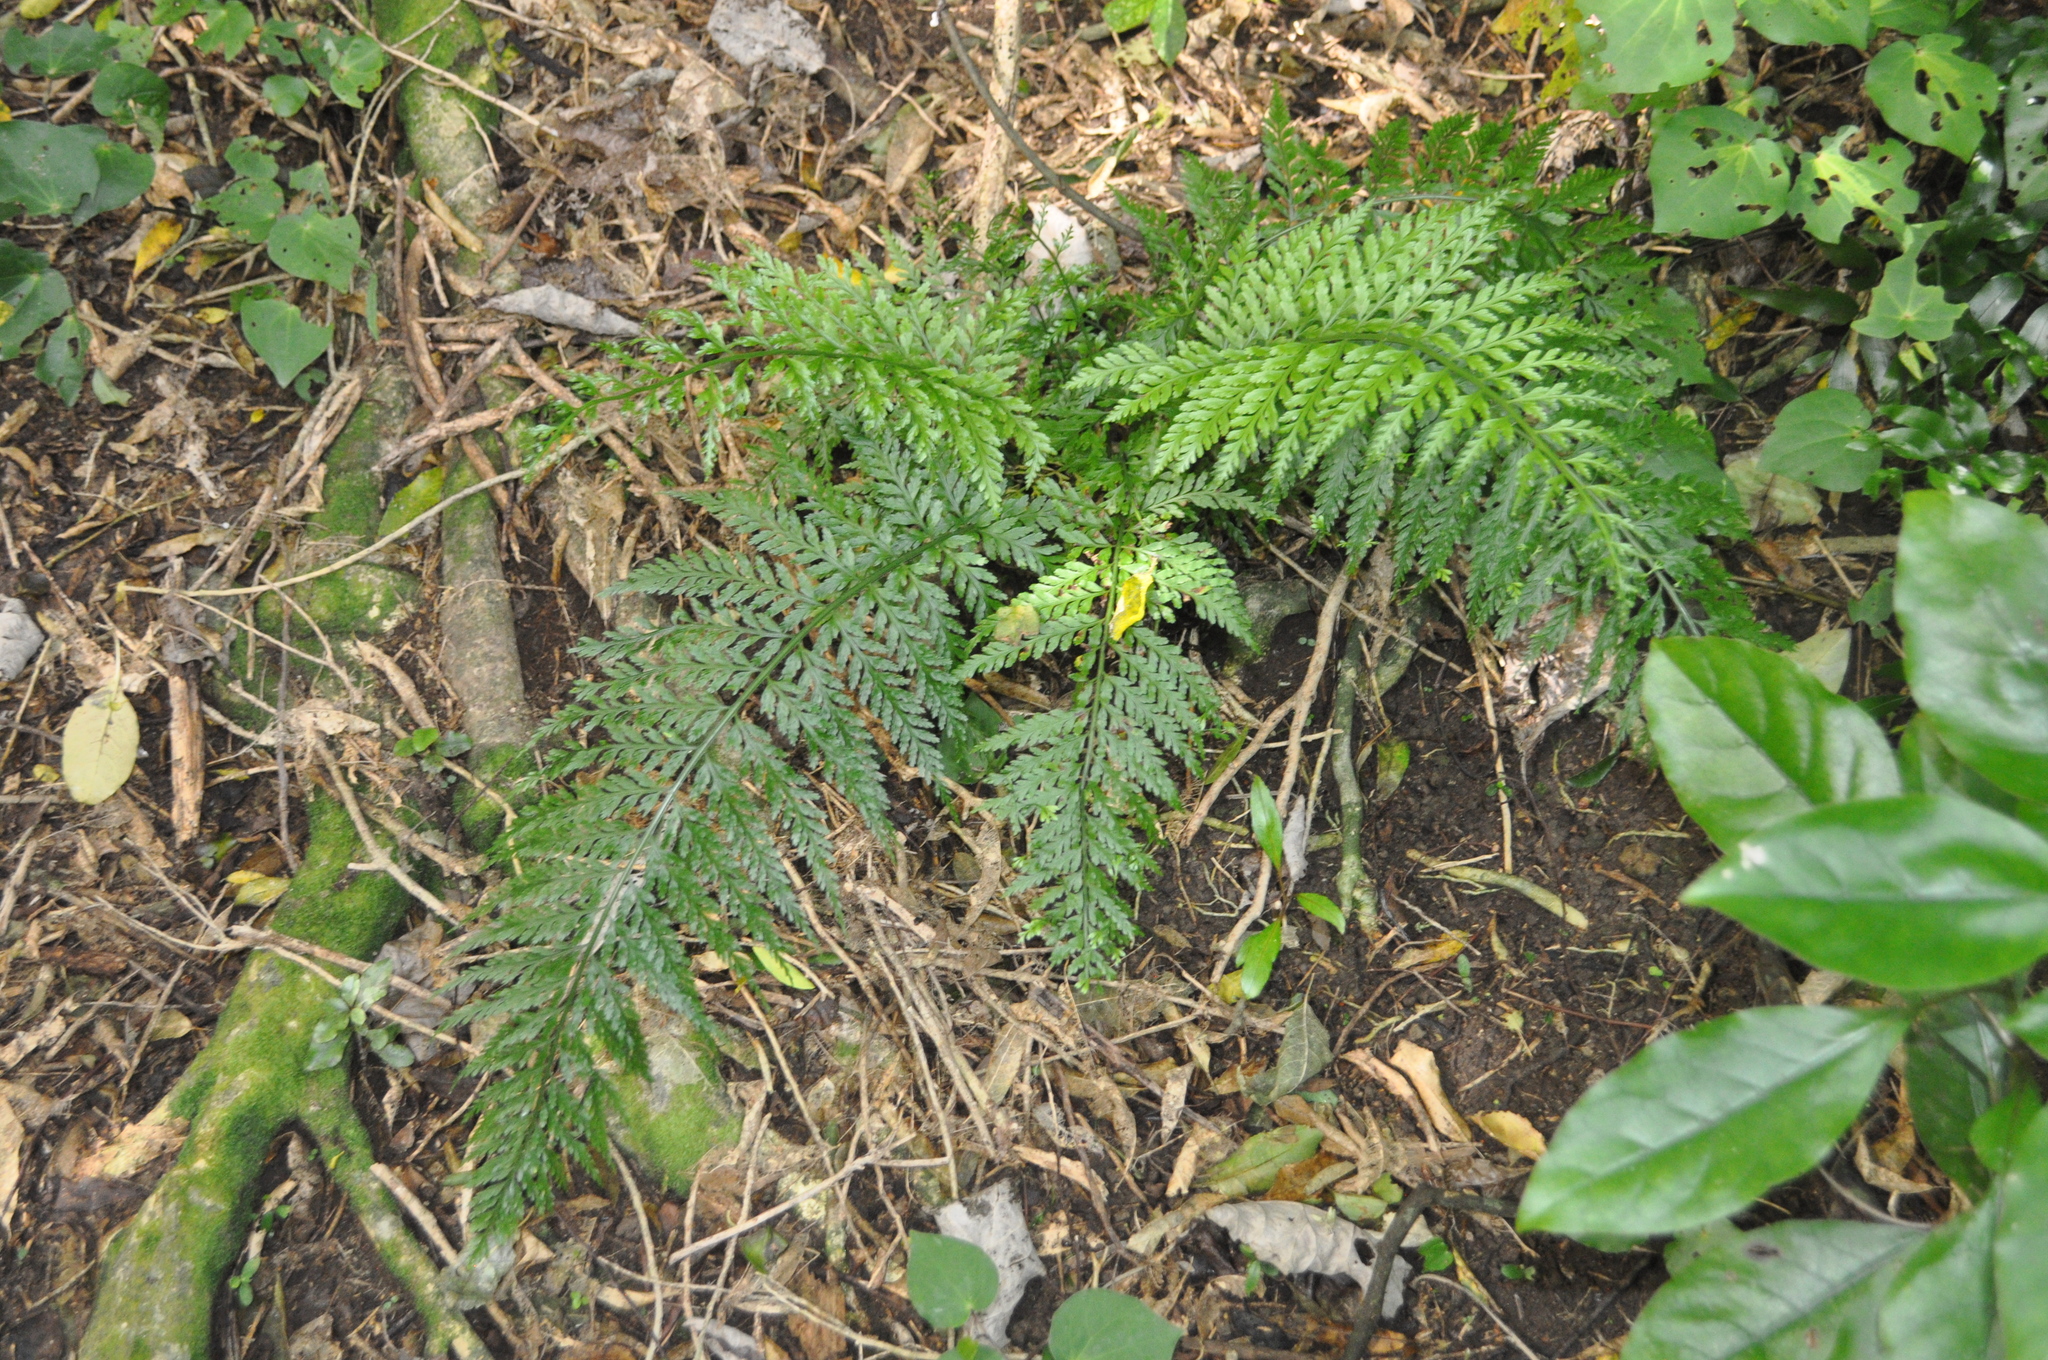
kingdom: Plantae
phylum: Tracheophyta
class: Polypodiopsida
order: Polypodiales
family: Aspleniaceae
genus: Asplenium
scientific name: Asplenium
